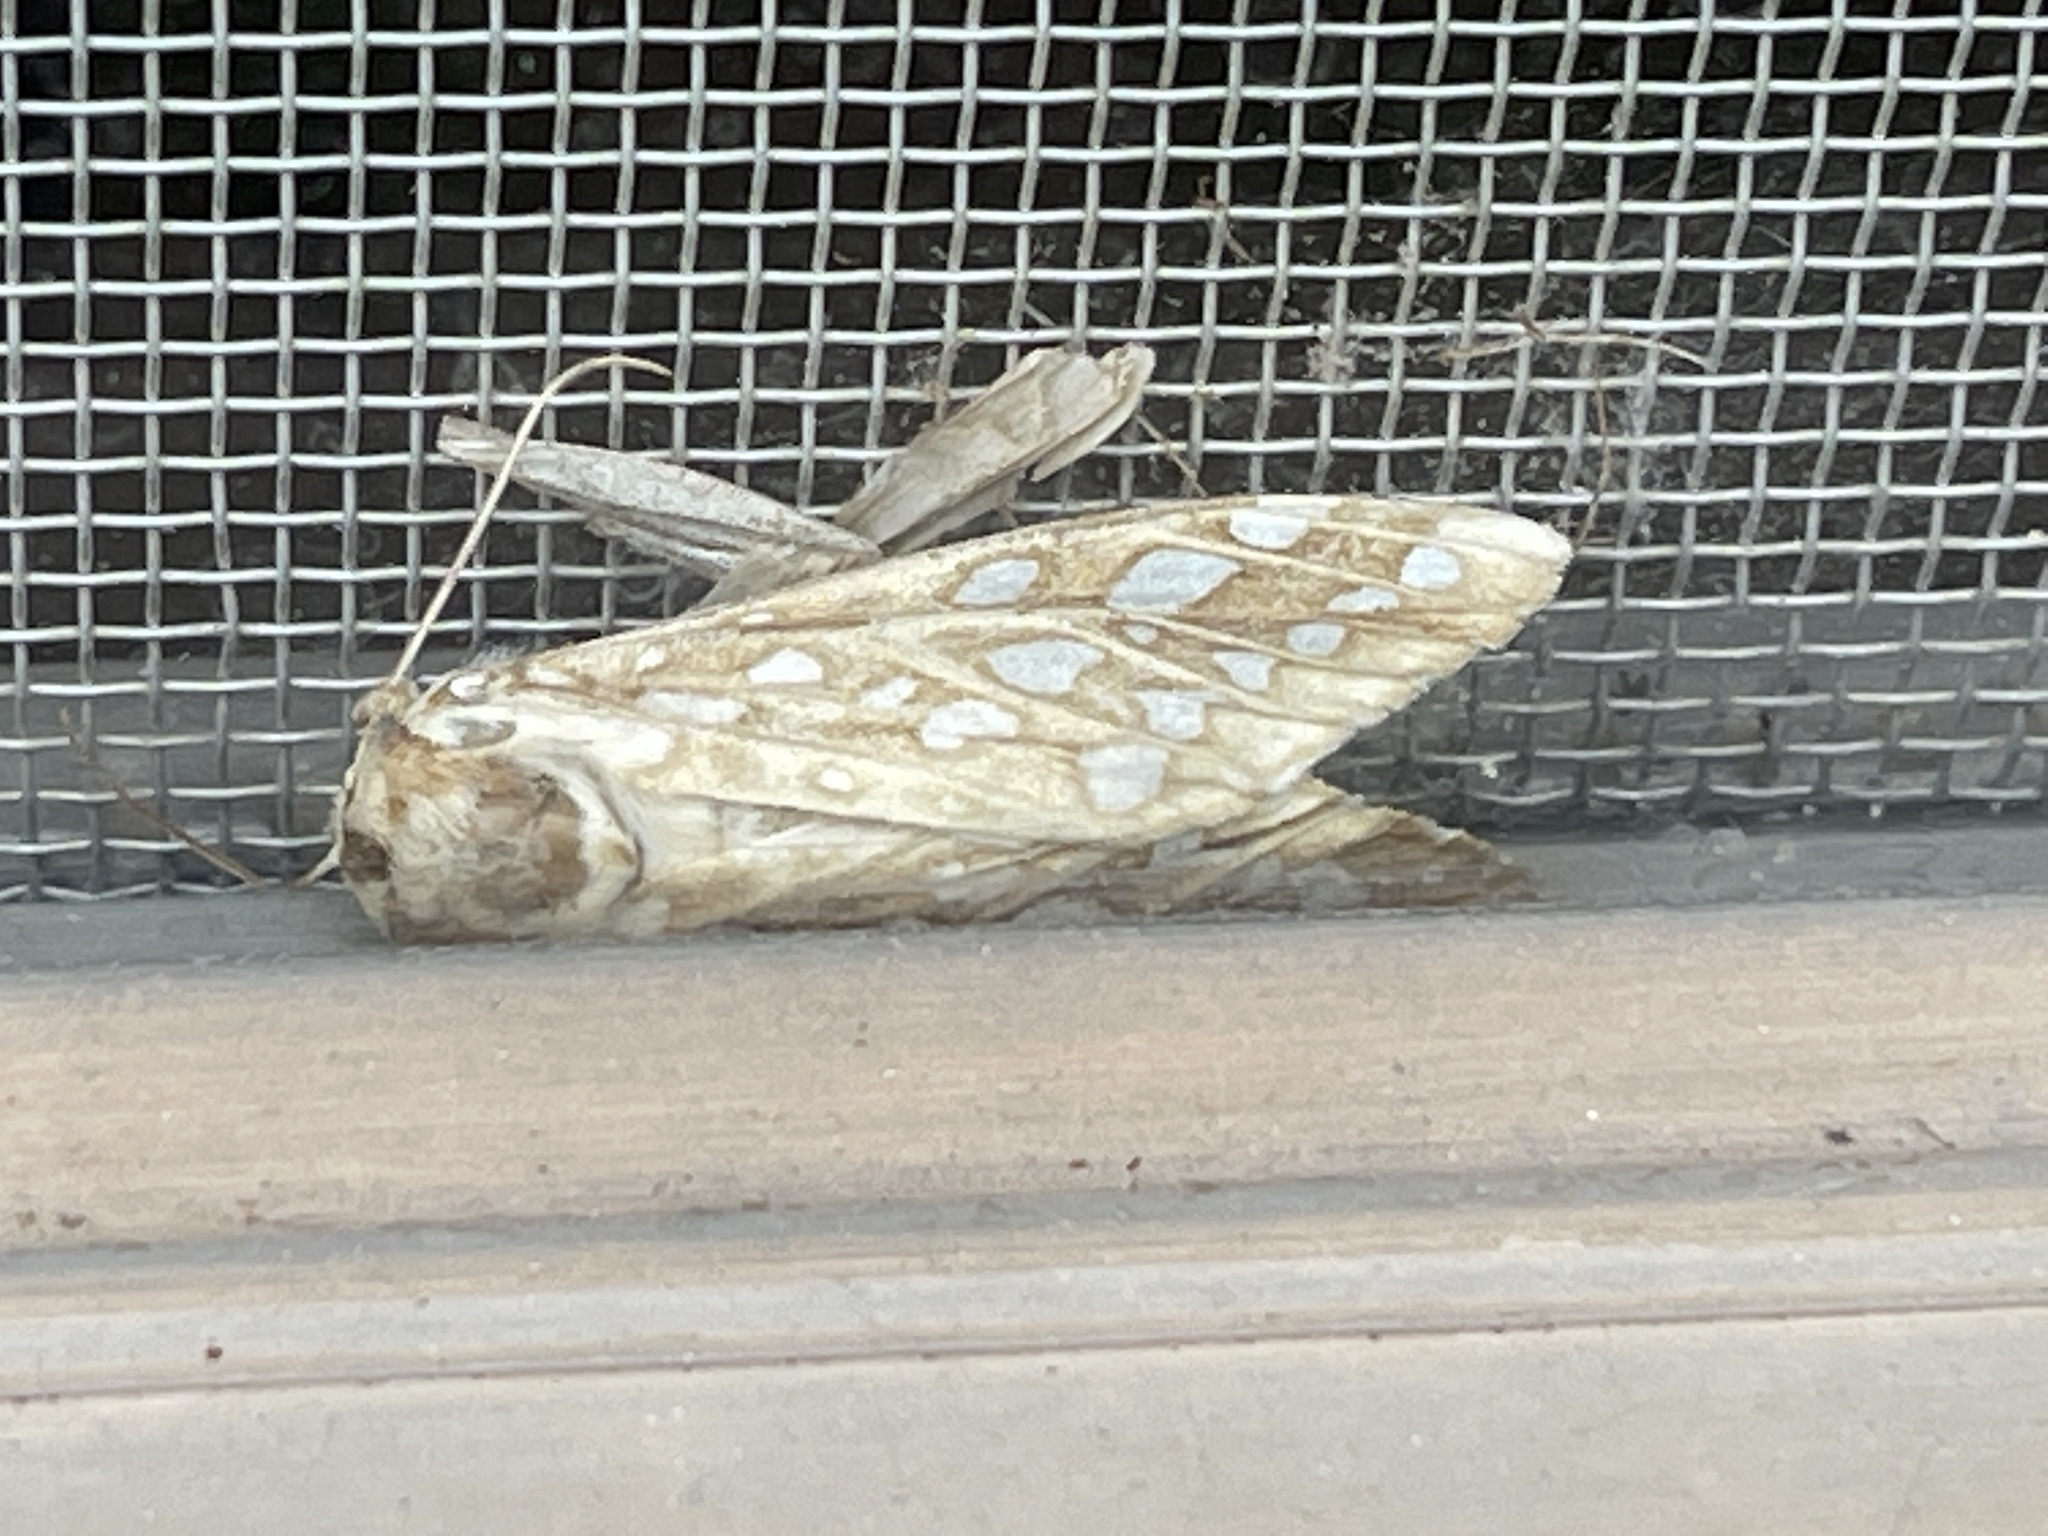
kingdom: Animalia
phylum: Arthropoda
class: Insecta
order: Lepidoptera
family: Erebidae
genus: Lophocampa
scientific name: Lophocampa argentata
